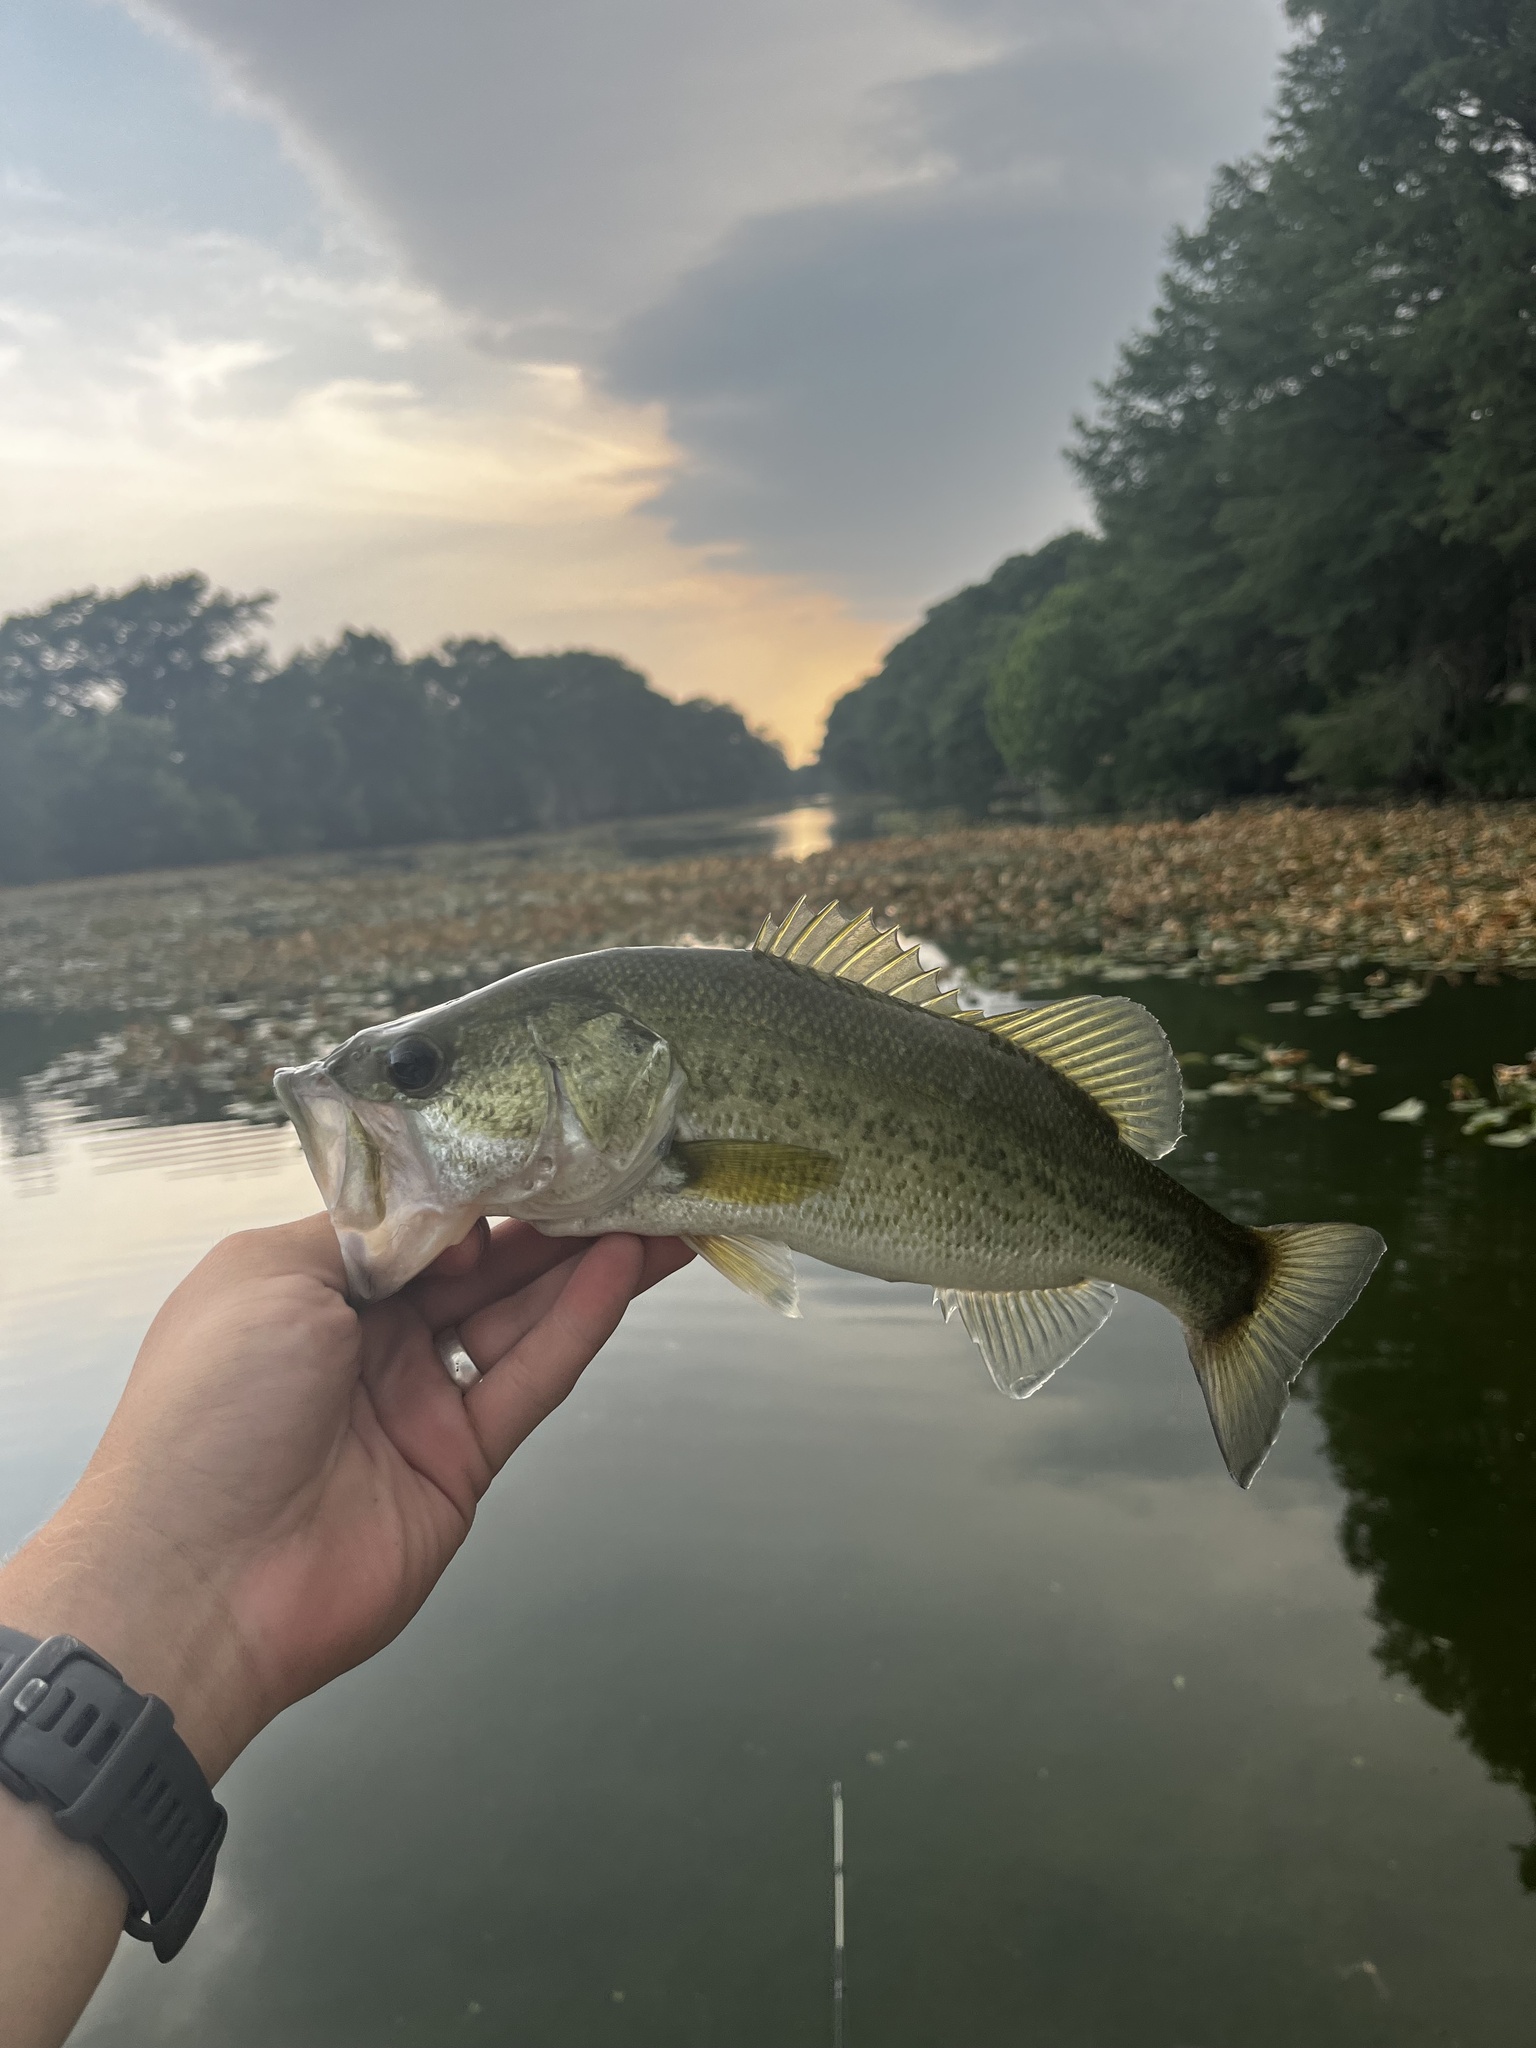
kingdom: Animalia
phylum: Chordata
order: Perciformes
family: Centrarchidae
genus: Micropterus
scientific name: Micropterus
